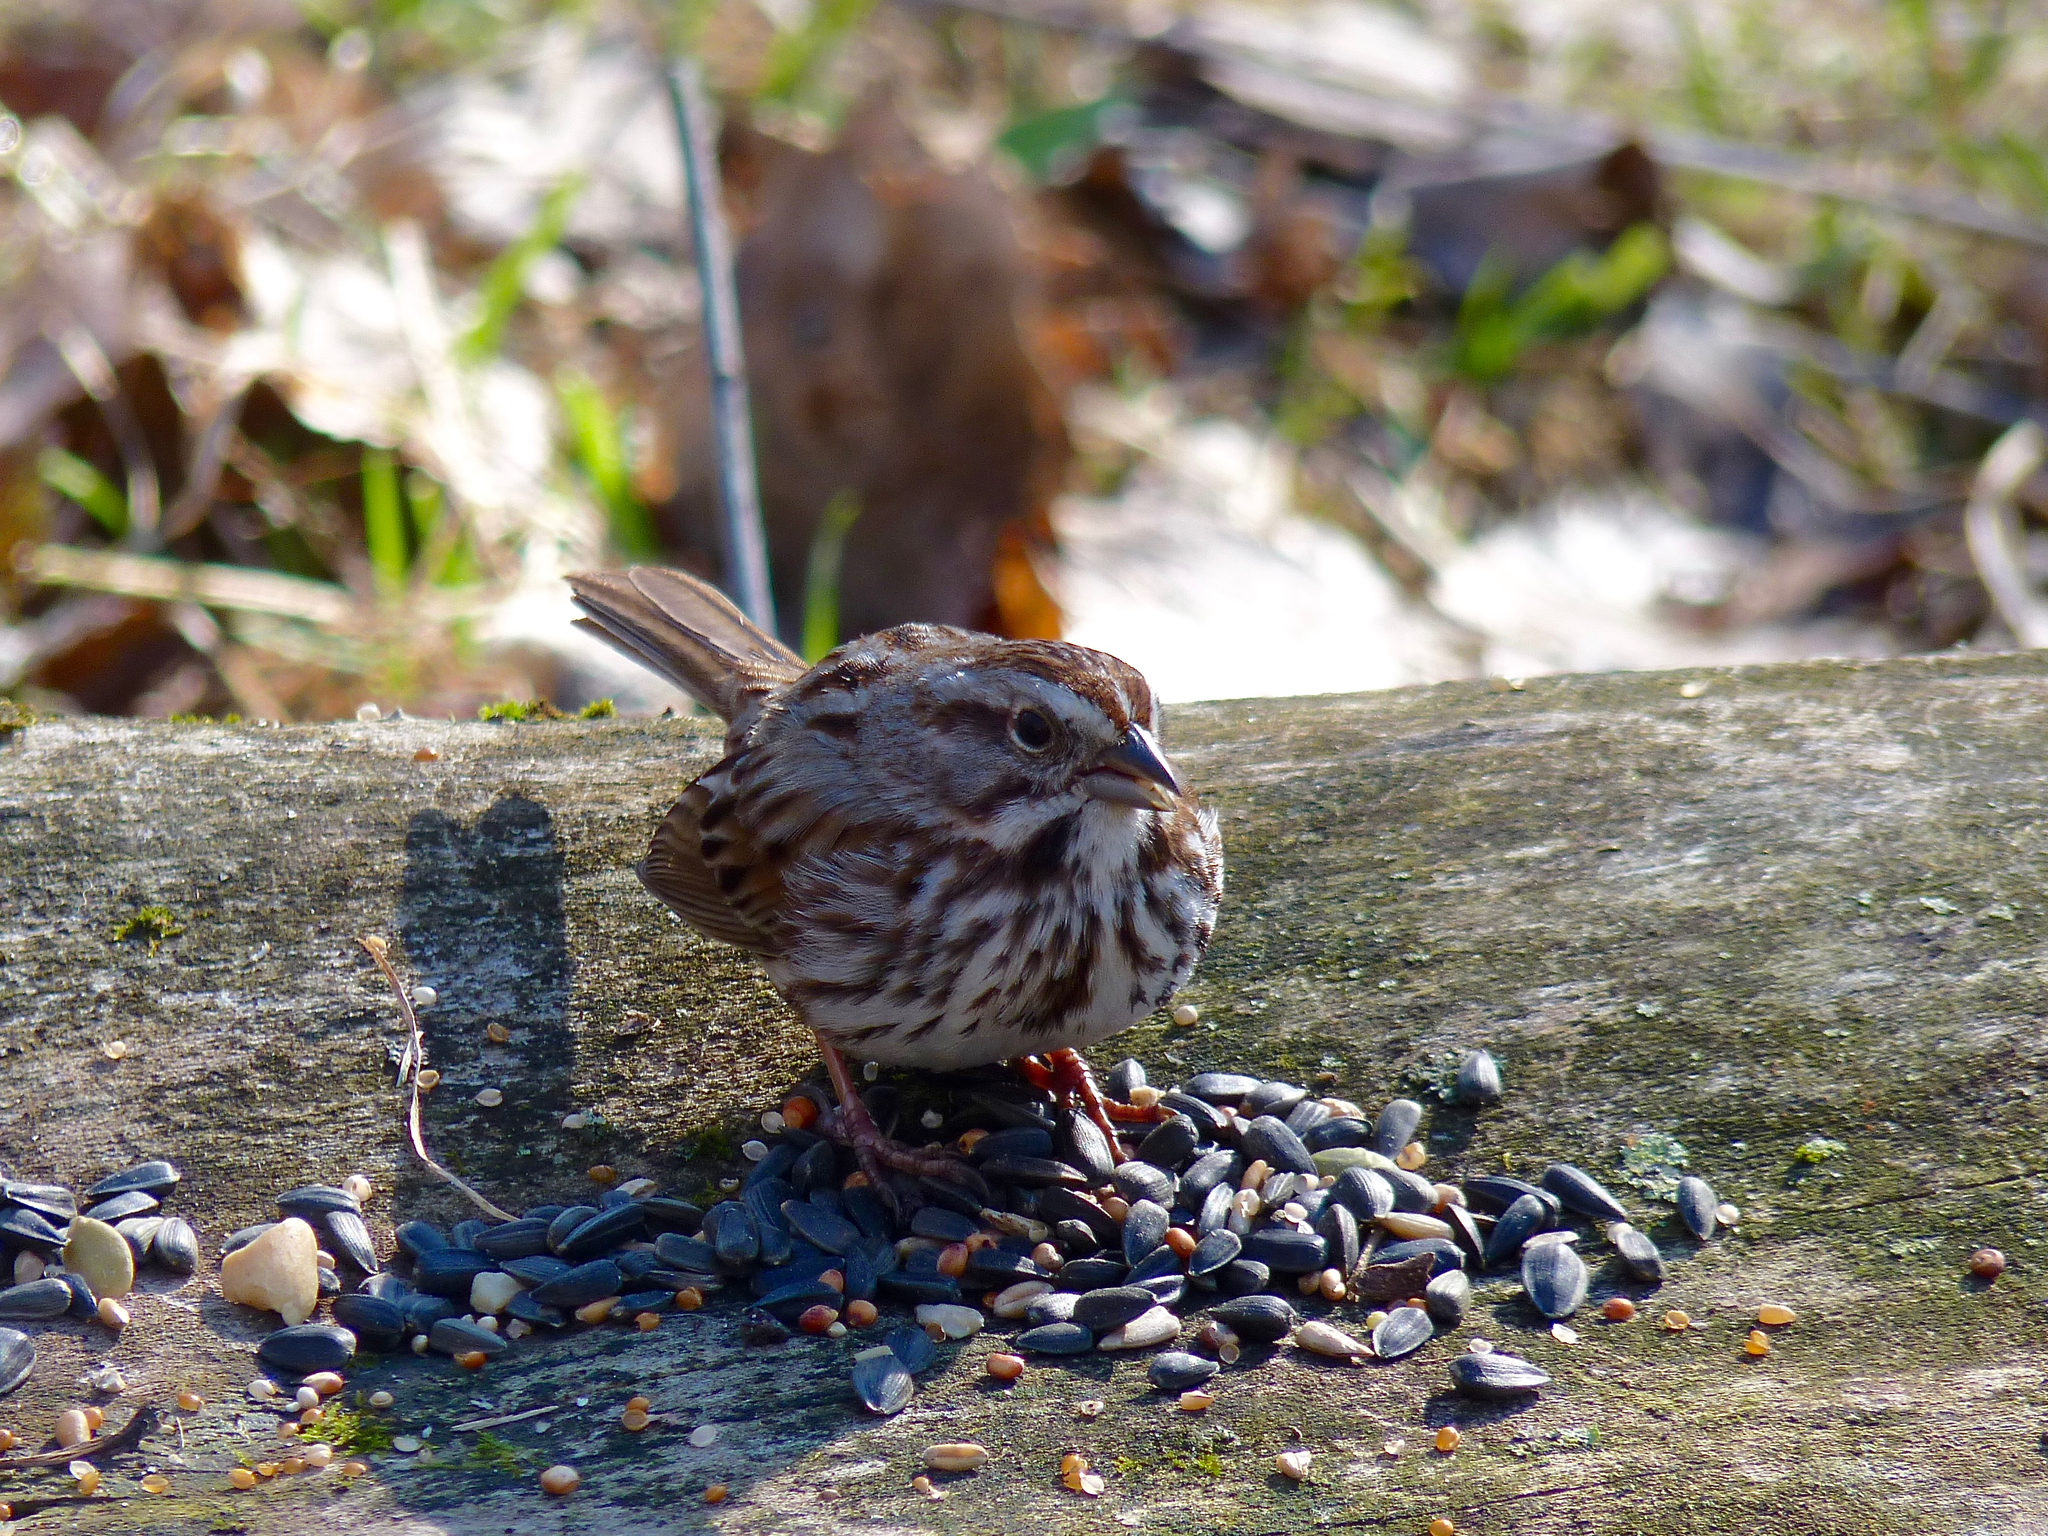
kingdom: Animalia
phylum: Chordata
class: Aves
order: Passeriformes
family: Passerellidae
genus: Melospiza
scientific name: Melospiza melodia
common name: Song sparrow
